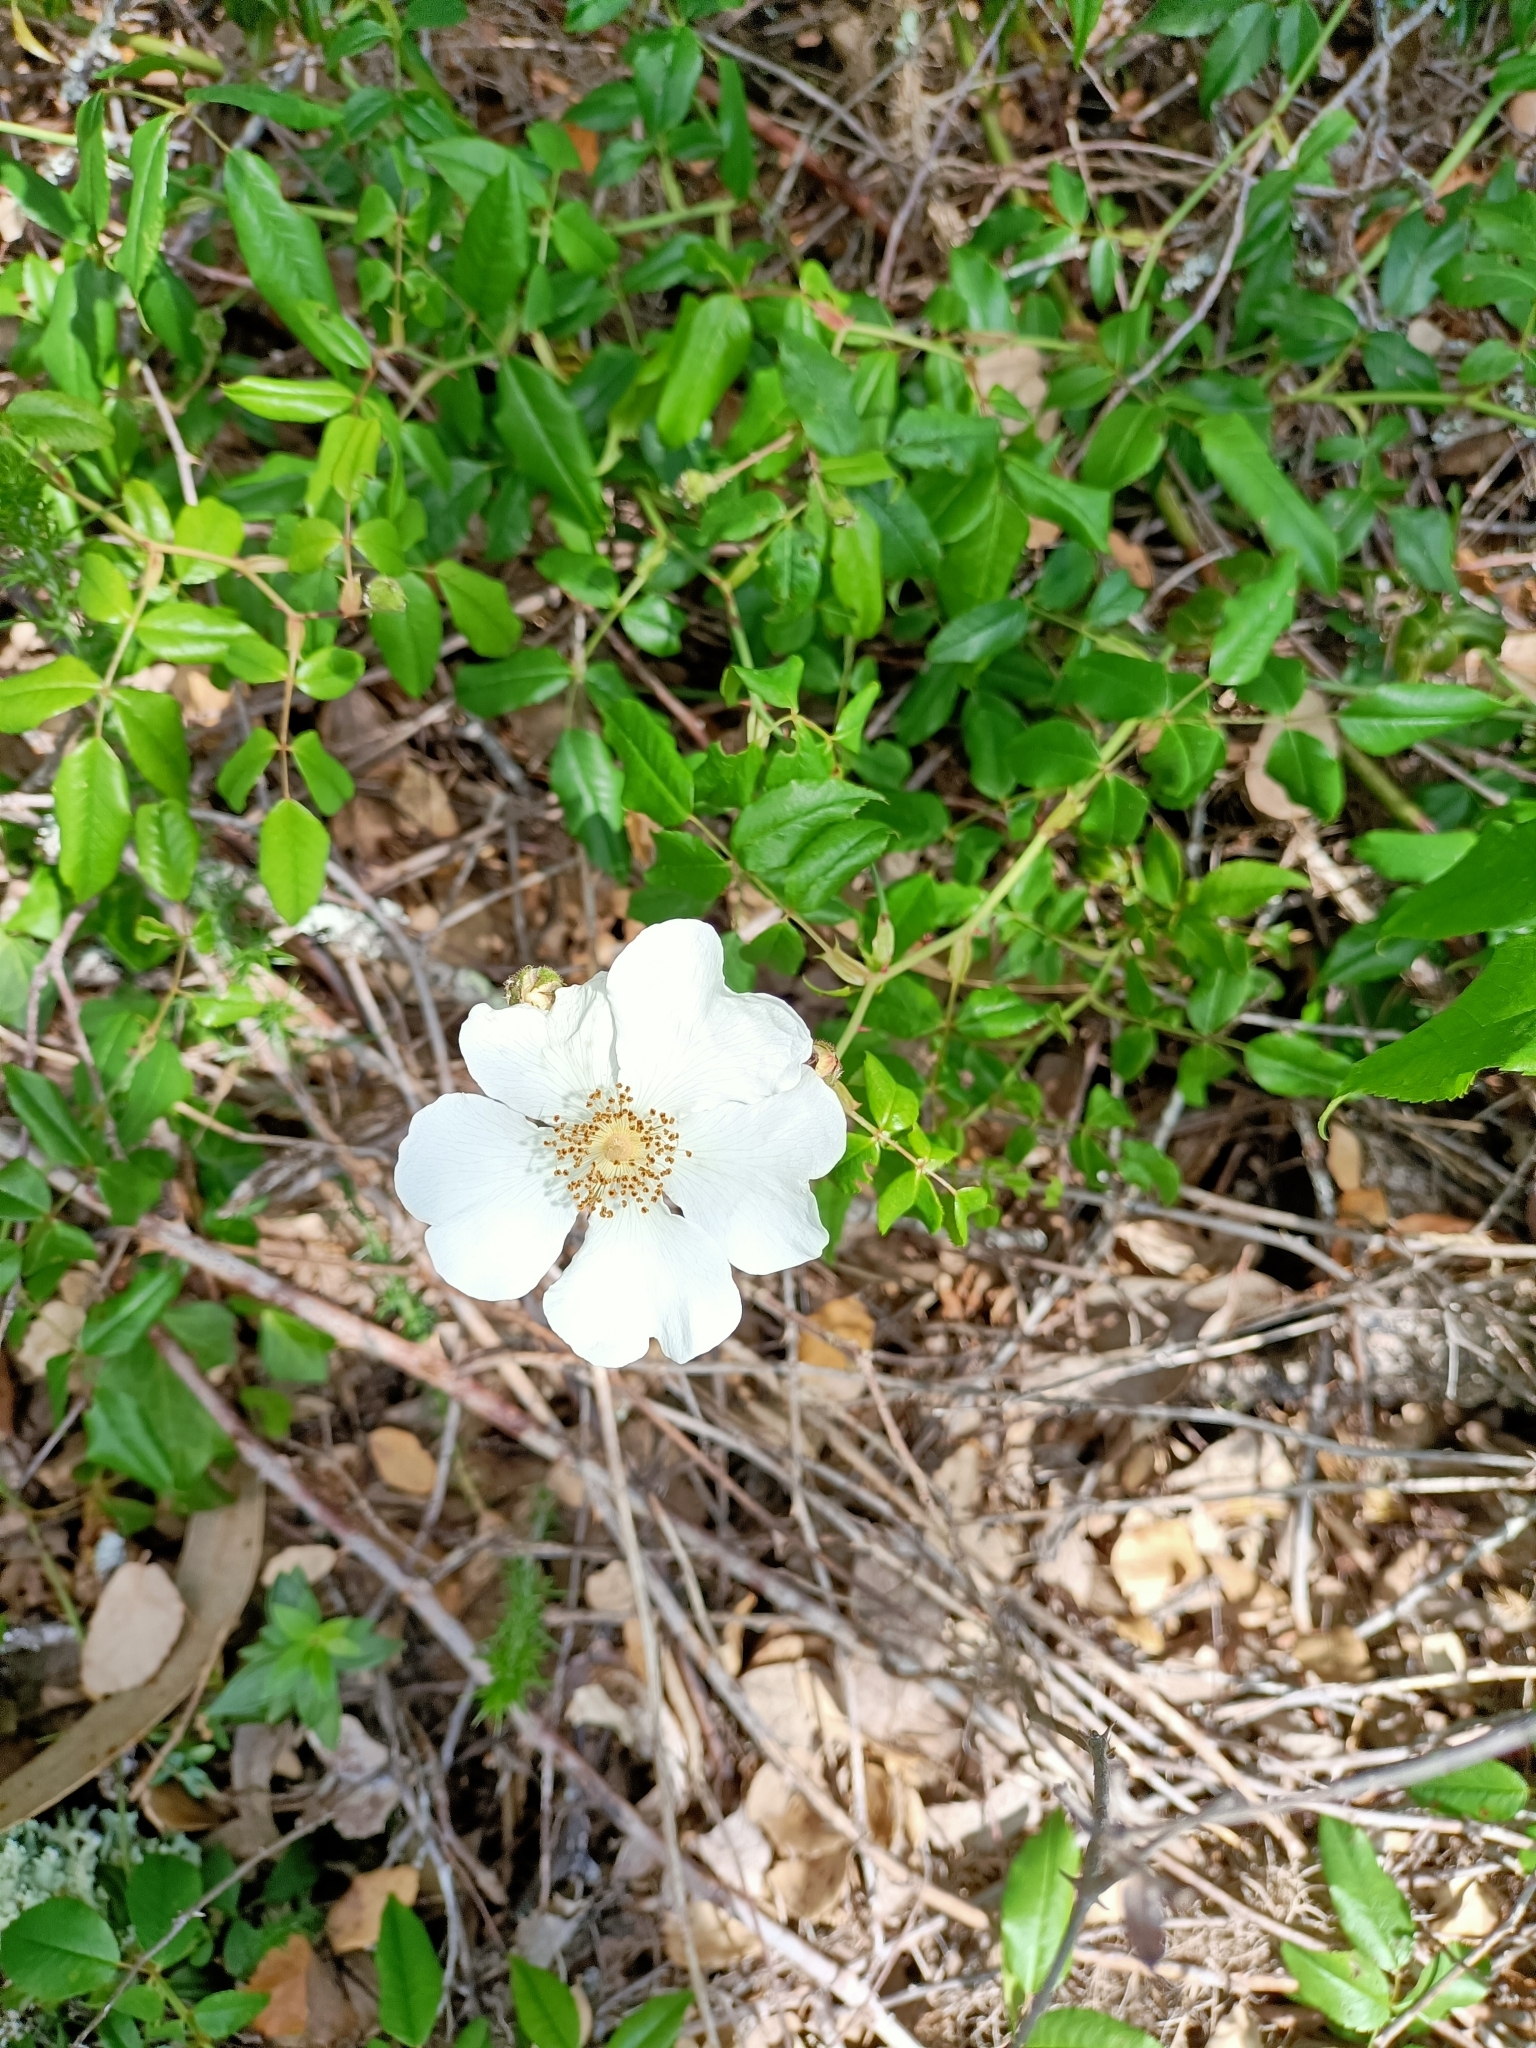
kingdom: Plantae
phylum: Tracheophyta
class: Magnoliopsida
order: Rosales
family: Rosaceae
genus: Rosa
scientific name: Rosa sempervirens
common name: Evergreen rose
